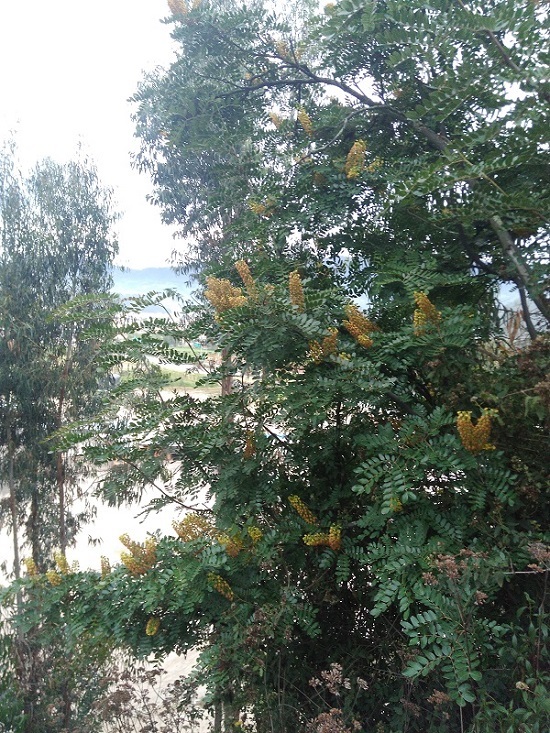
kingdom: Plantae
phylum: Tracheophyta
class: Magnoliopsida
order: Fabales
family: Fabaceae
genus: Tara
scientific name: Tara spinosa
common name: Spiny holdback
